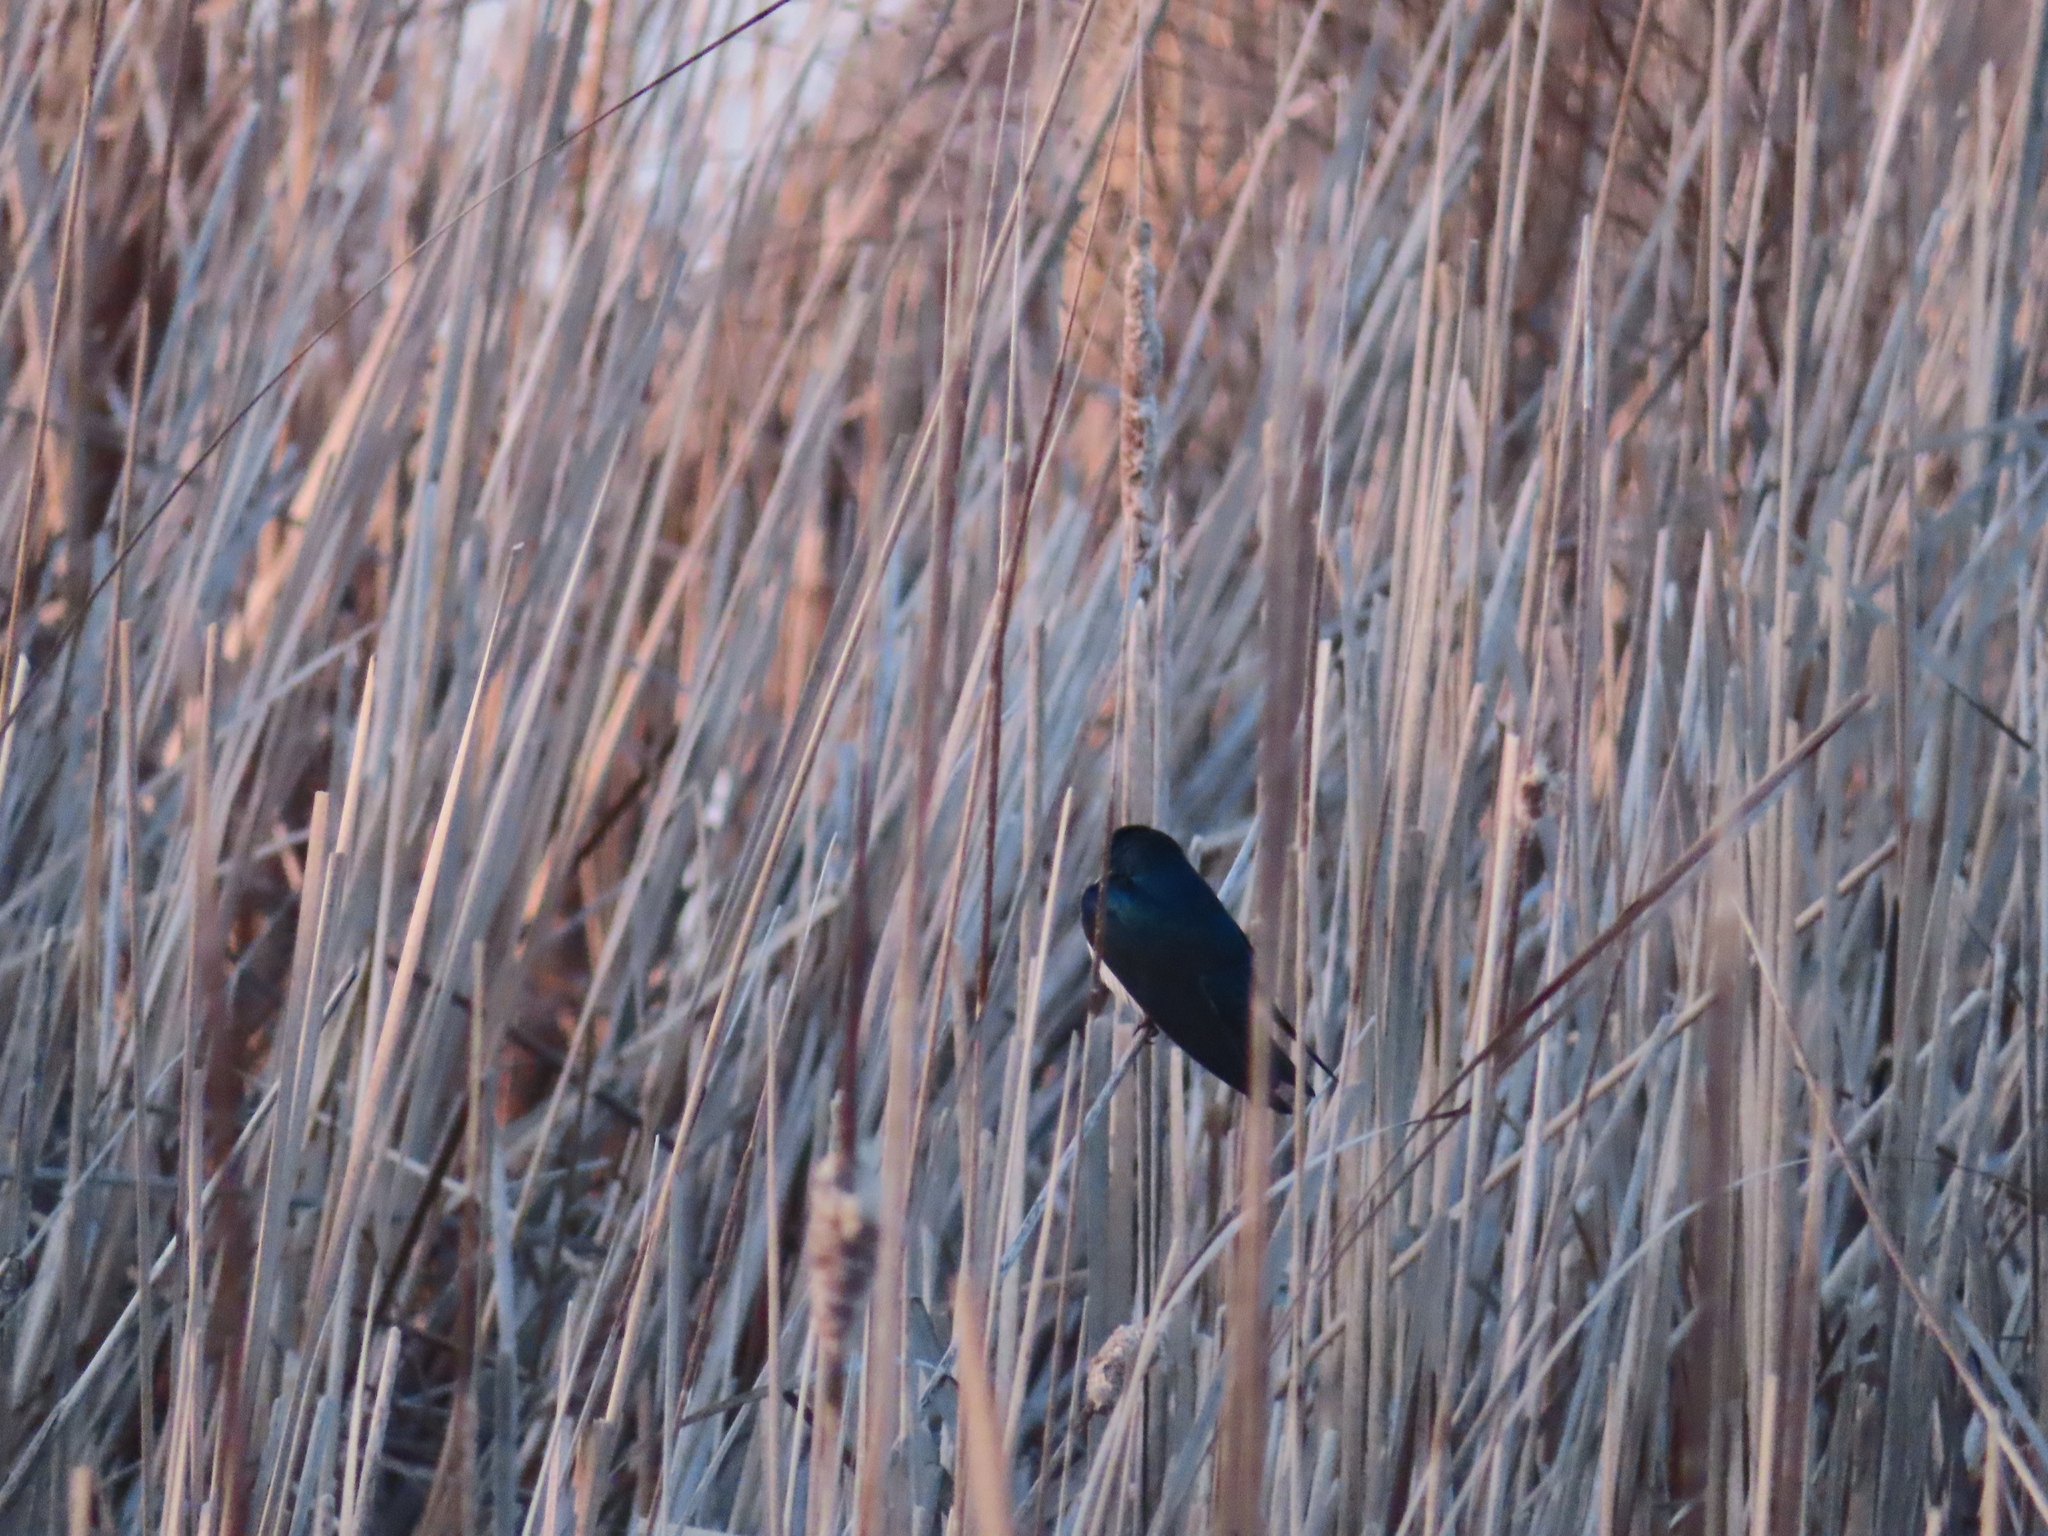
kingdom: Animalia
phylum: Chordata
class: Aves
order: Passeriformes
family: Hirundinidae
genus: Tachycineta
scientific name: Tachycineta bicolor
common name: Tree swallow
